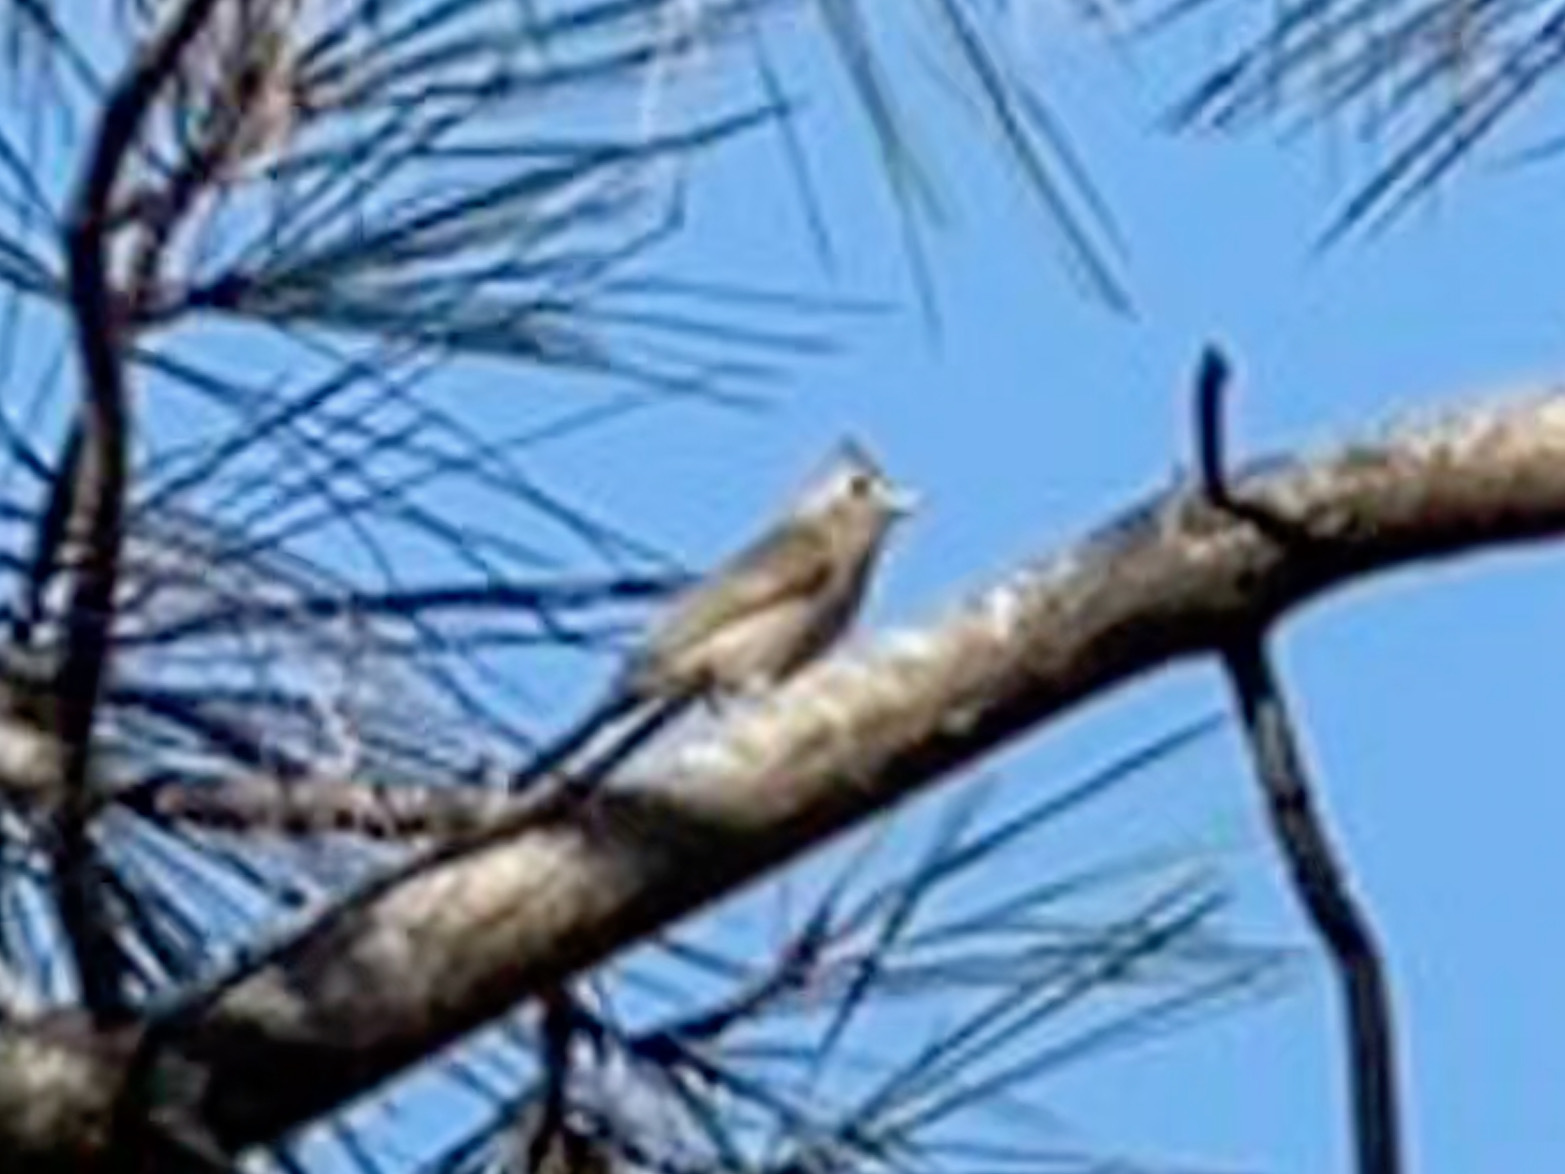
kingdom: Animalia
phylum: Chordata
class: Aves
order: Passeriformes
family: Paridae
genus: Baeolophus
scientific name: Baeolophus inornatus
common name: Oak titmouse
